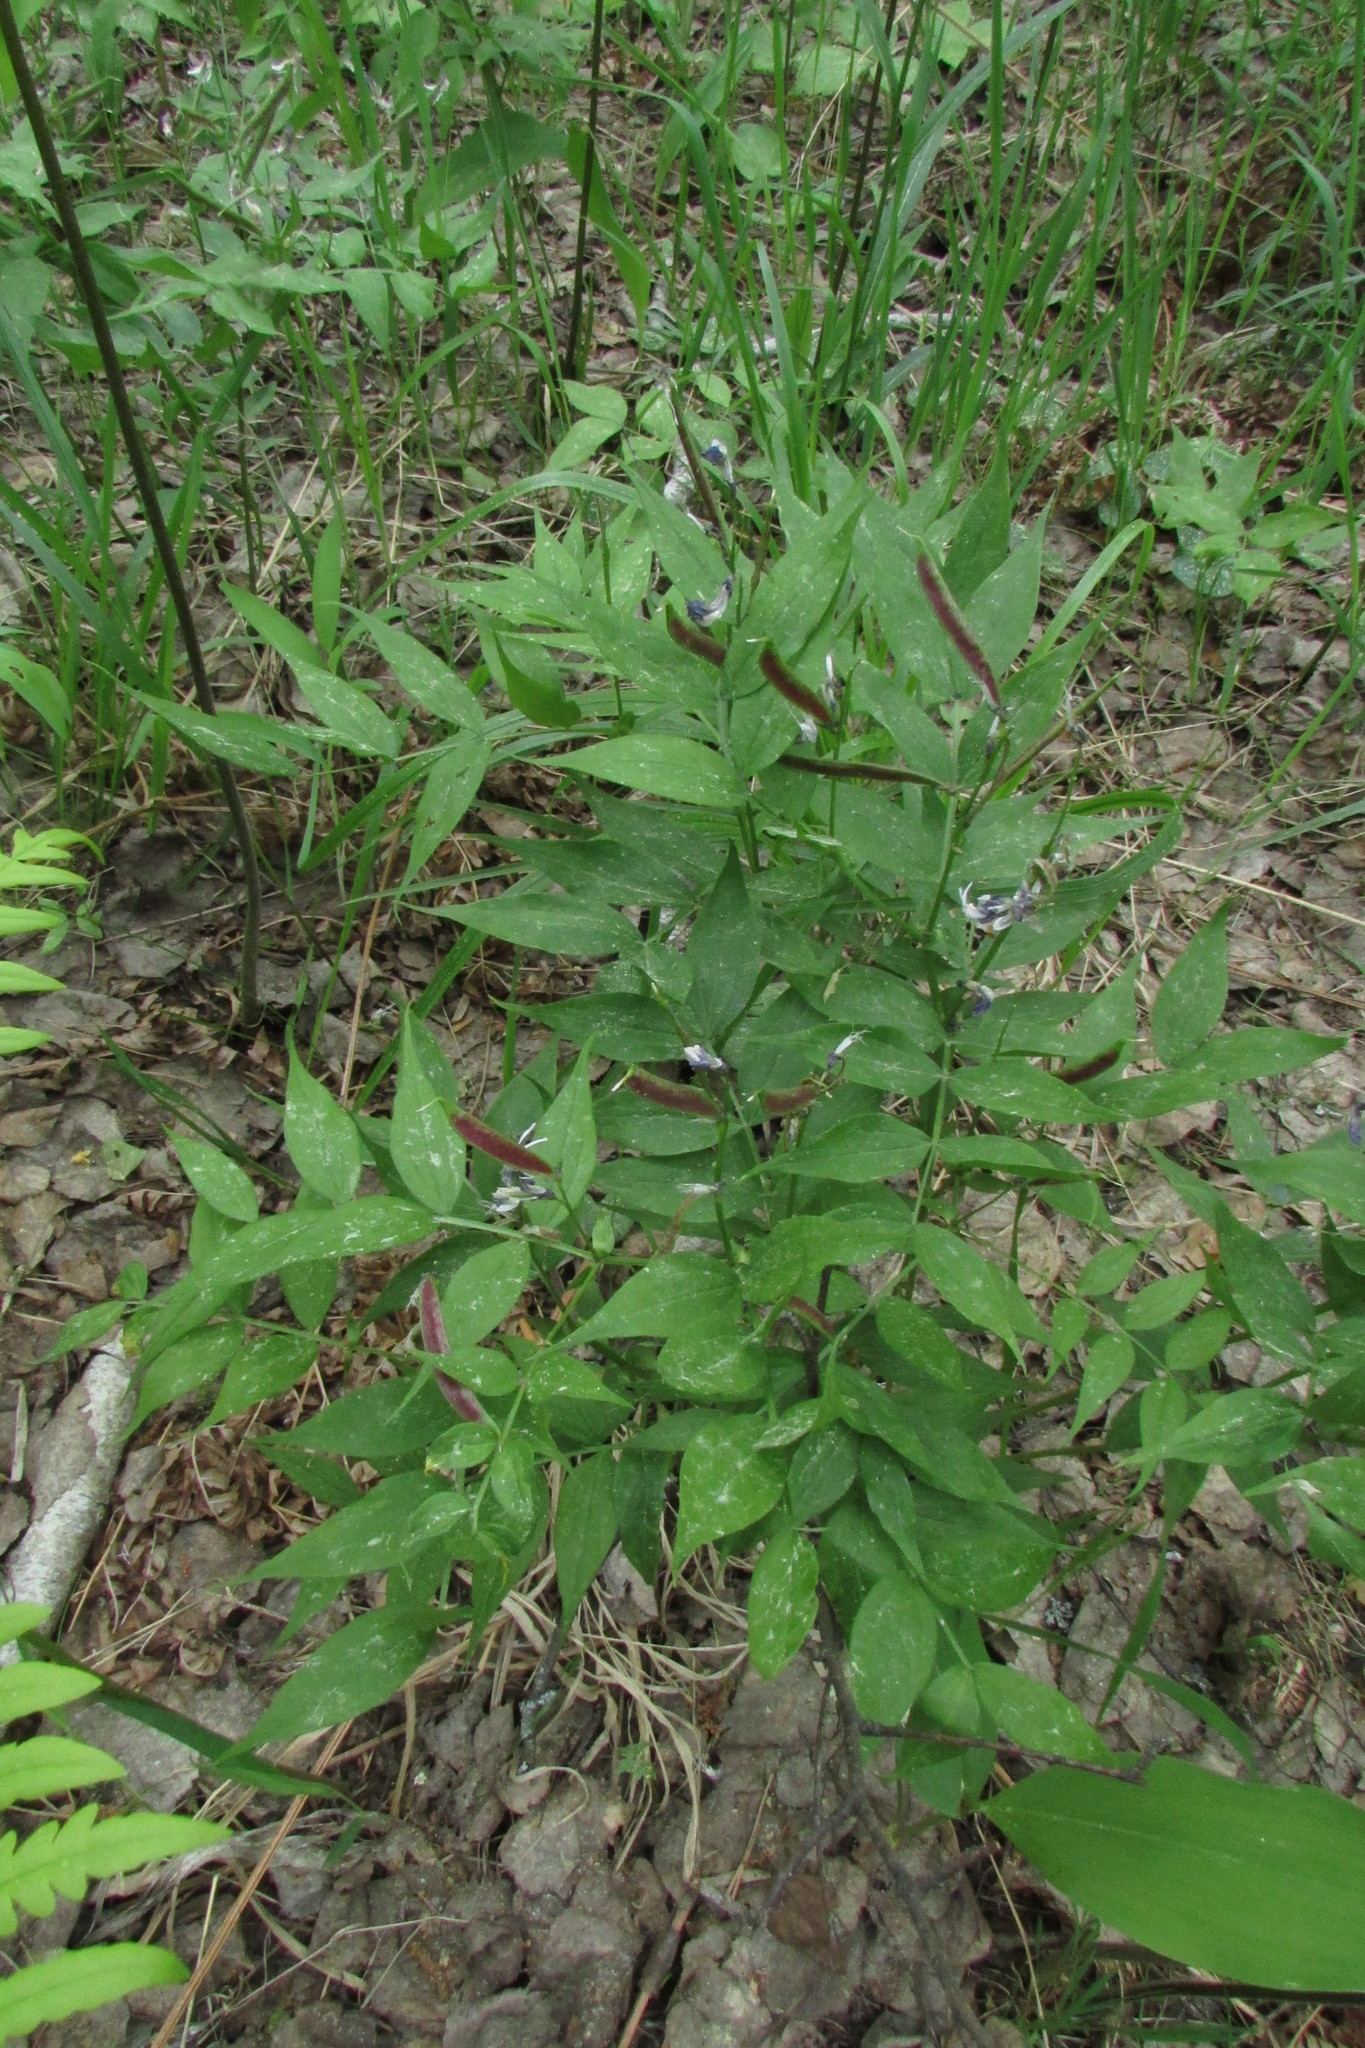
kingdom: Plantae
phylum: Tracheophyta
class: Magnoliopsida
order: Fabales
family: Fabaceae
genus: Lathyrus
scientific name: Lathyrus vernus
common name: Spring pea
